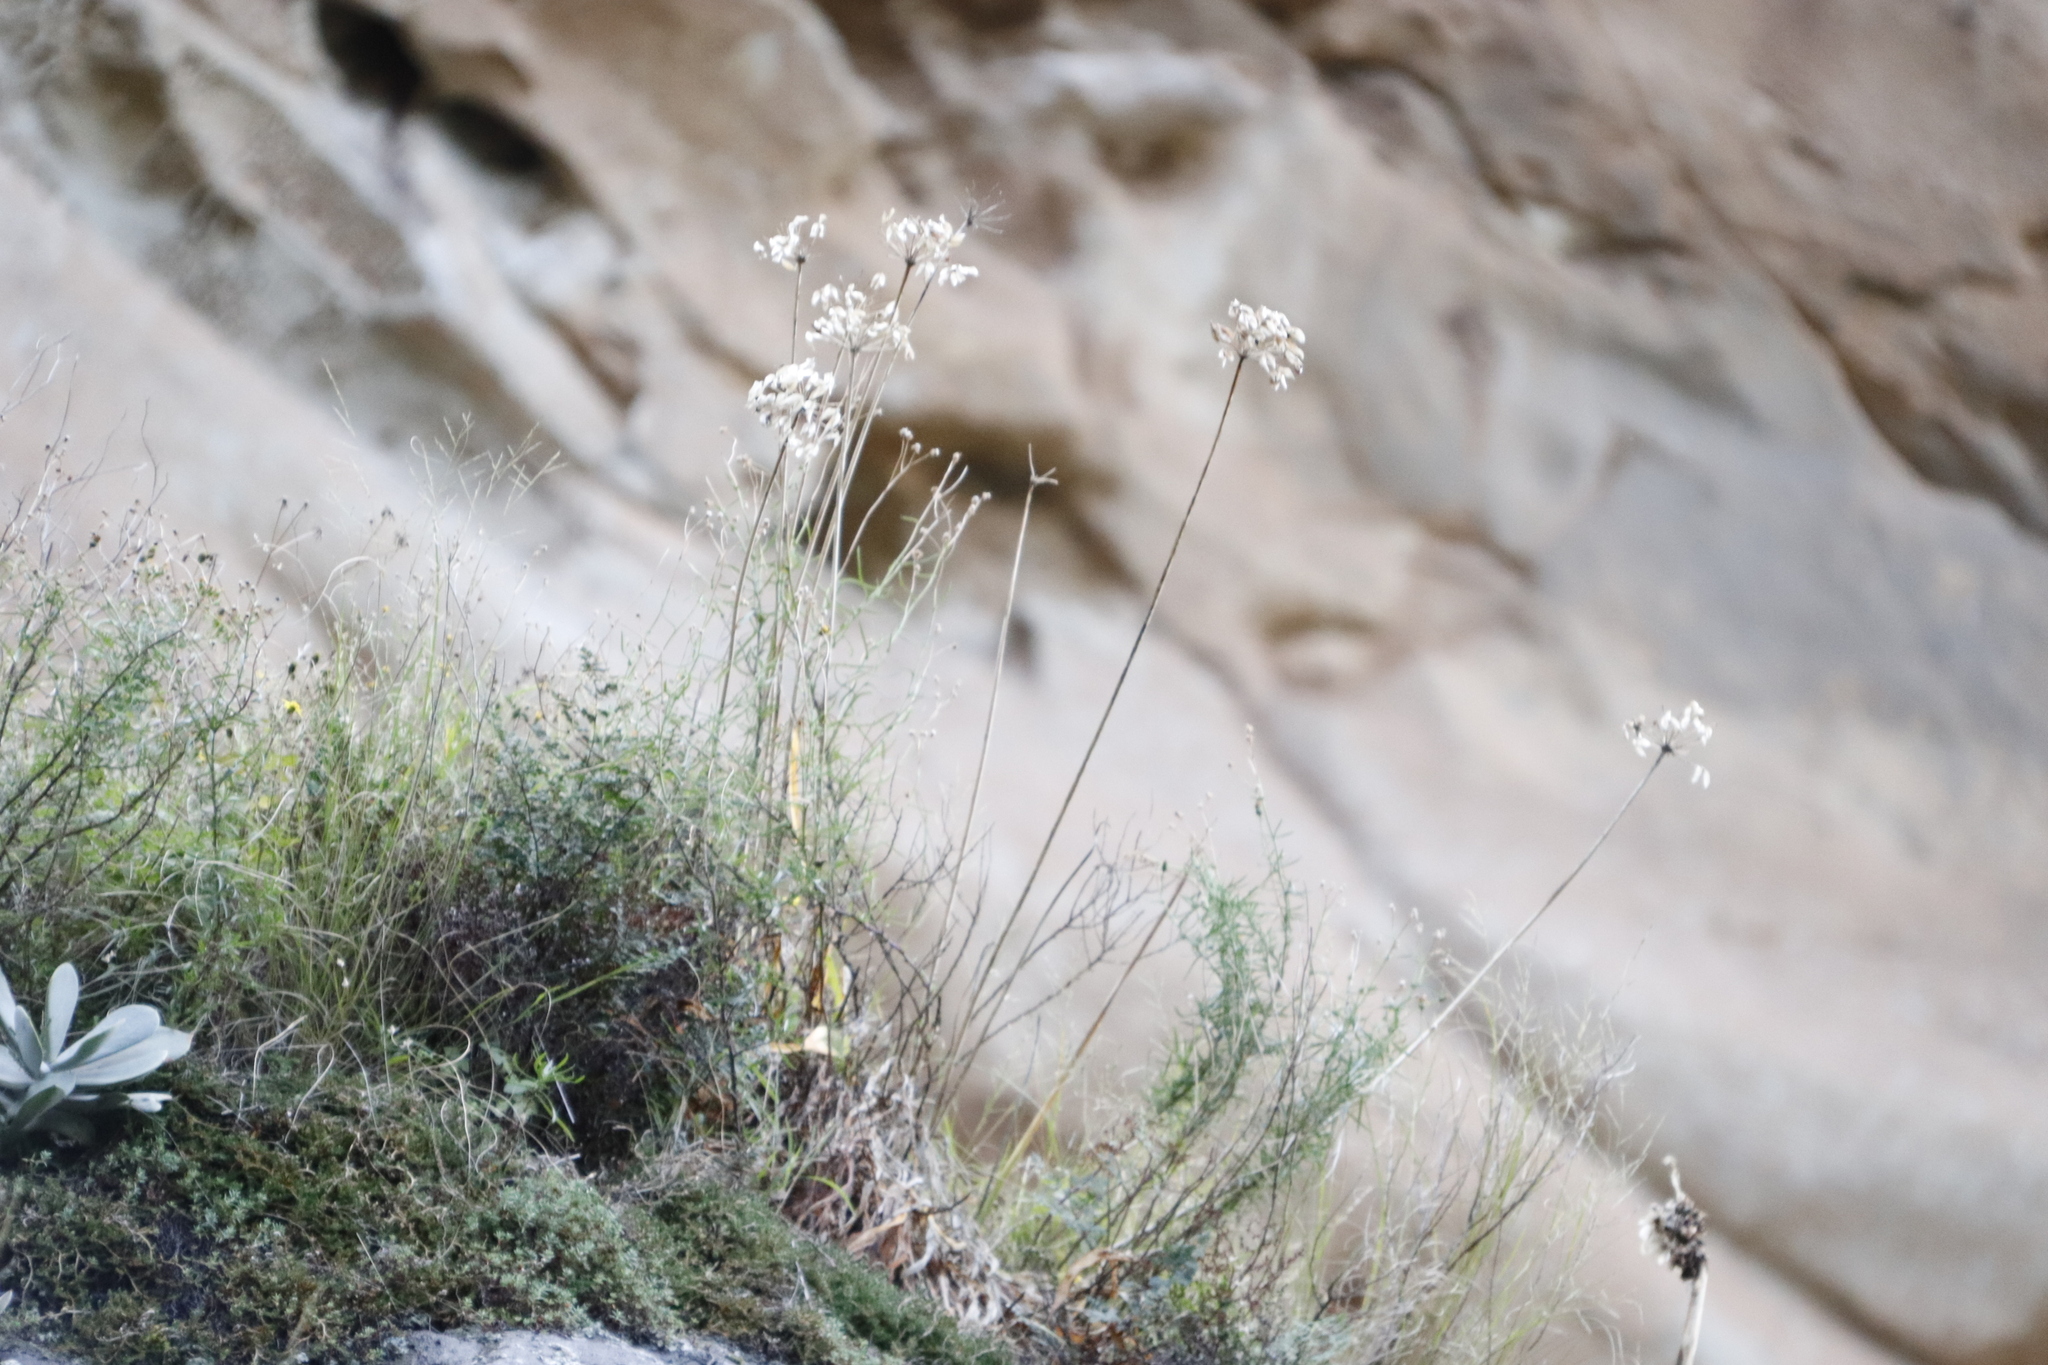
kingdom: Plantae
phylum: Tracheophyta
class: Liliopsida
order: Asparagales
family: Amaryllidaceae
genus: Agapanthus
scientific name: Agapanthus campanulatus
